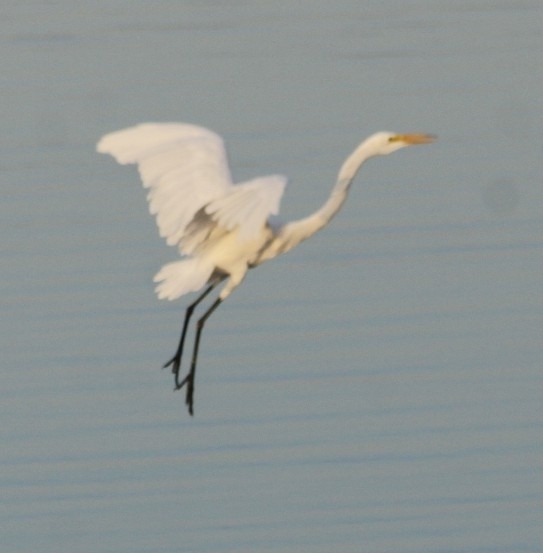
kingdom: Animalia
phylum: Chordata
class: Aves
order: Pelecaniformes
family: Ardeidae
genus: Ardea
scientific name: Ardea alba
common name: Great egret
